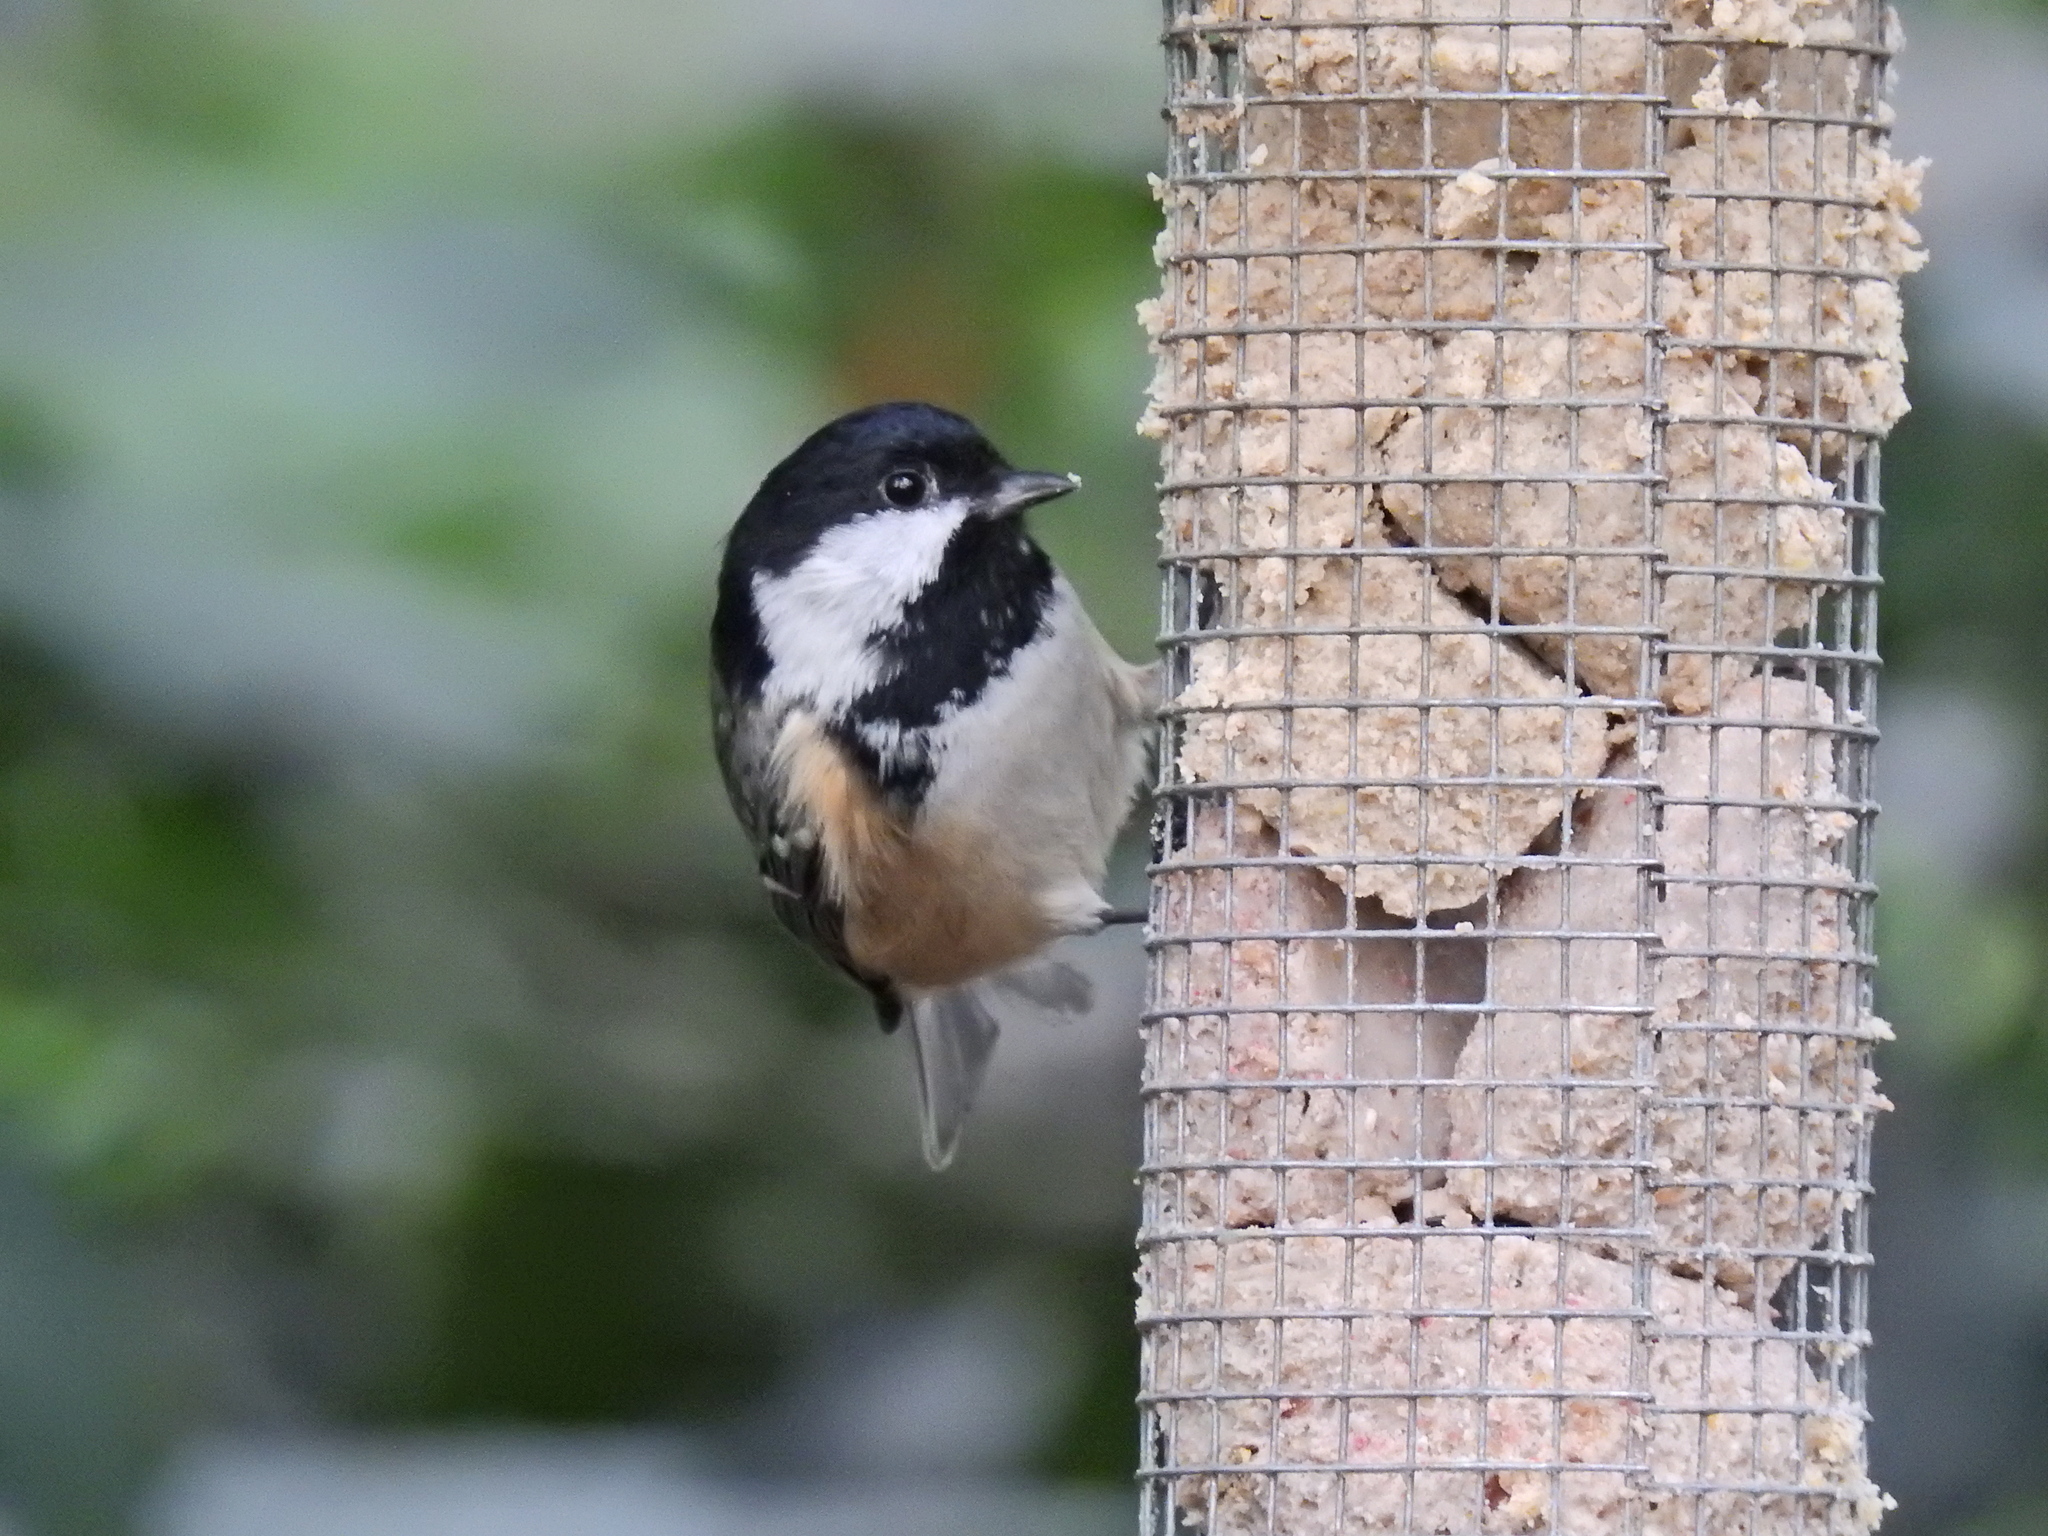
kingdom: Animalia
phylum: Chordata
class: Aves
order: Passeriformes
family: Paridae
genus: Periparus
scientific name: Periparus ater
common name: Coal tit
